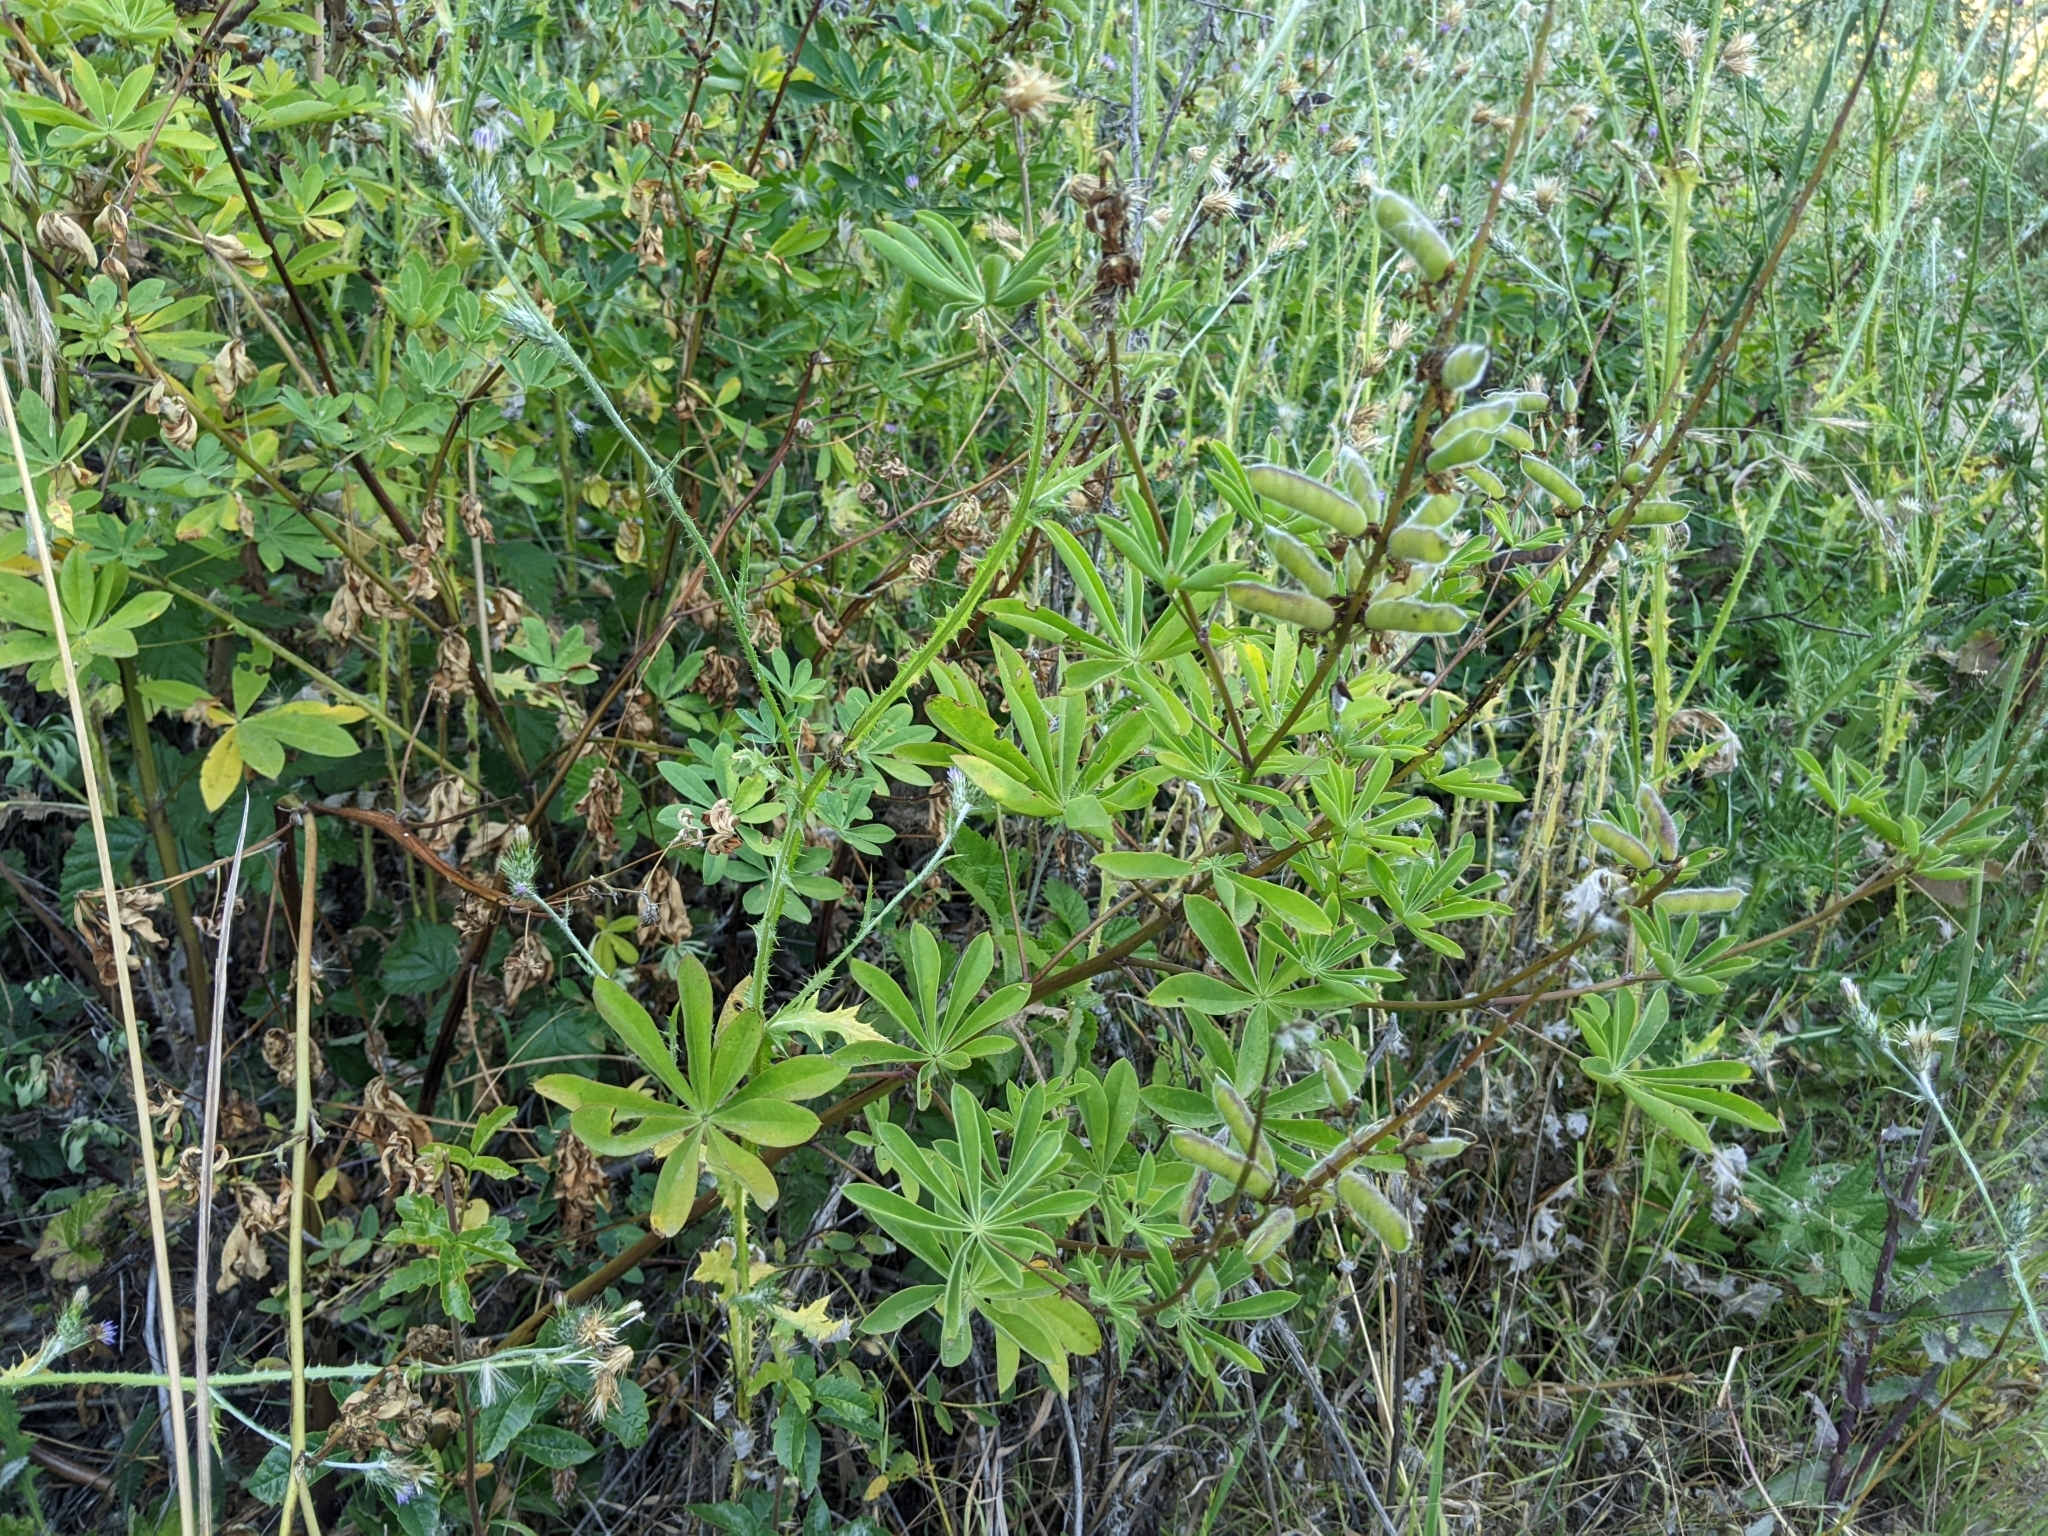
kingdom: Plantae
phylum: Tracheophyta
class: Magnoliopsida
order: Fabales
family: Fabaceae
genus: Lupinus
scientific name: Lupinus latifolius
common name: Broad-leaved lupine
